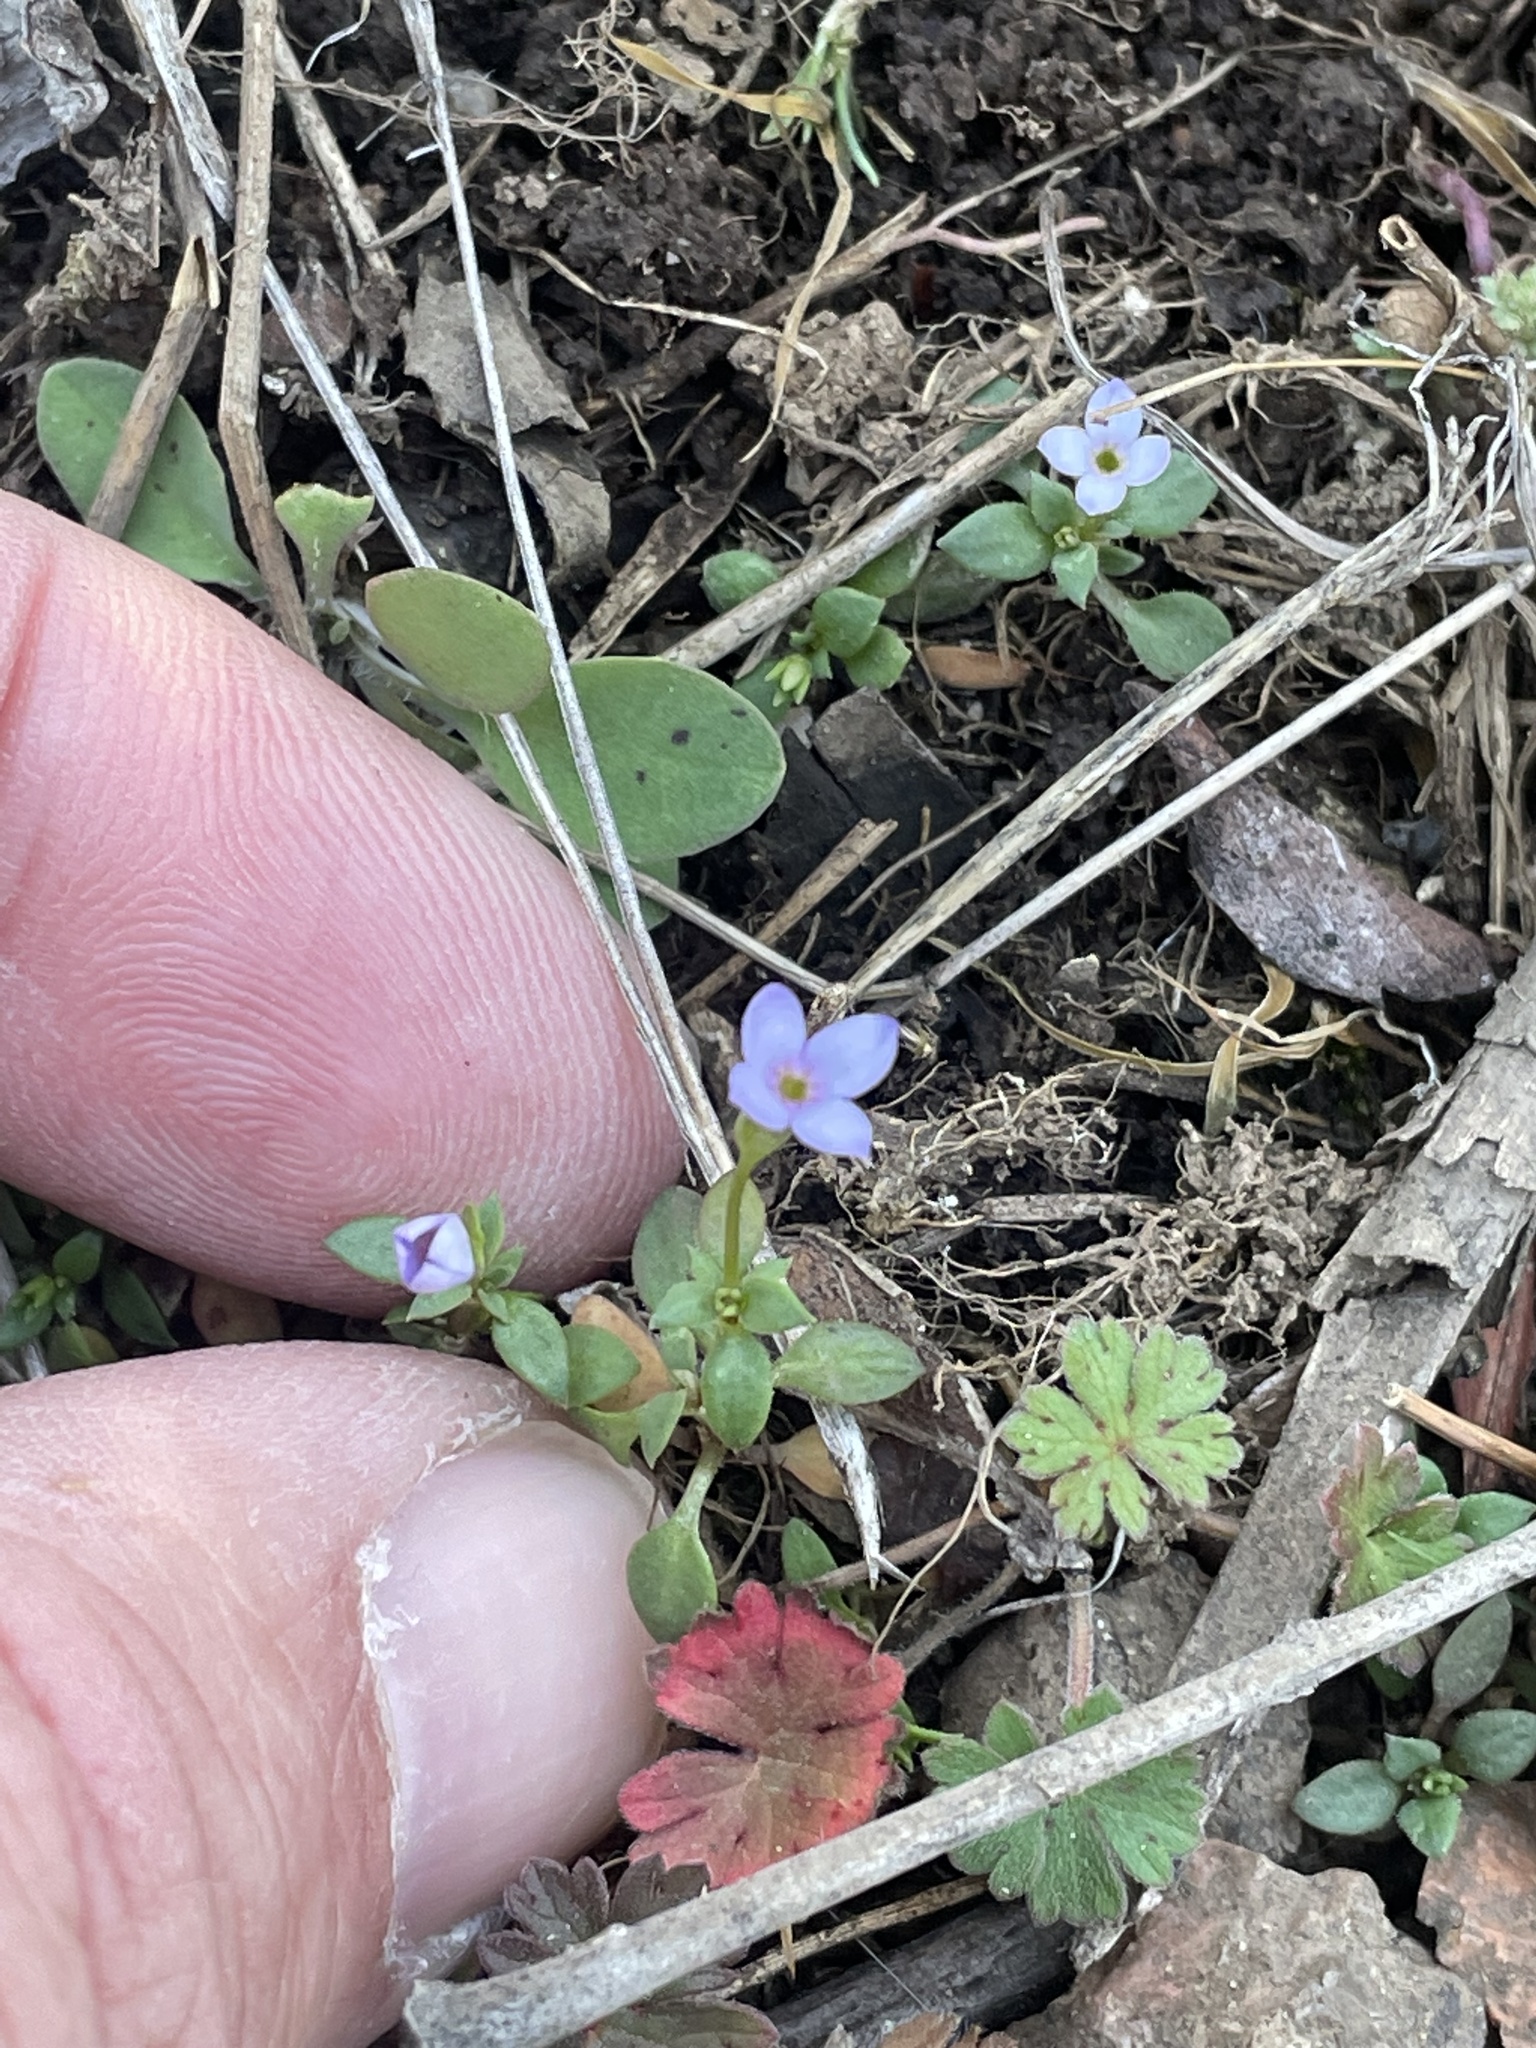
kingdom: Plantae
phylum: Tracheophyta
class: Magnoliopsida
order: Gentianales
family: Rubiaceae
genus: Houstonia
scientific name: Houstonia pusilla
